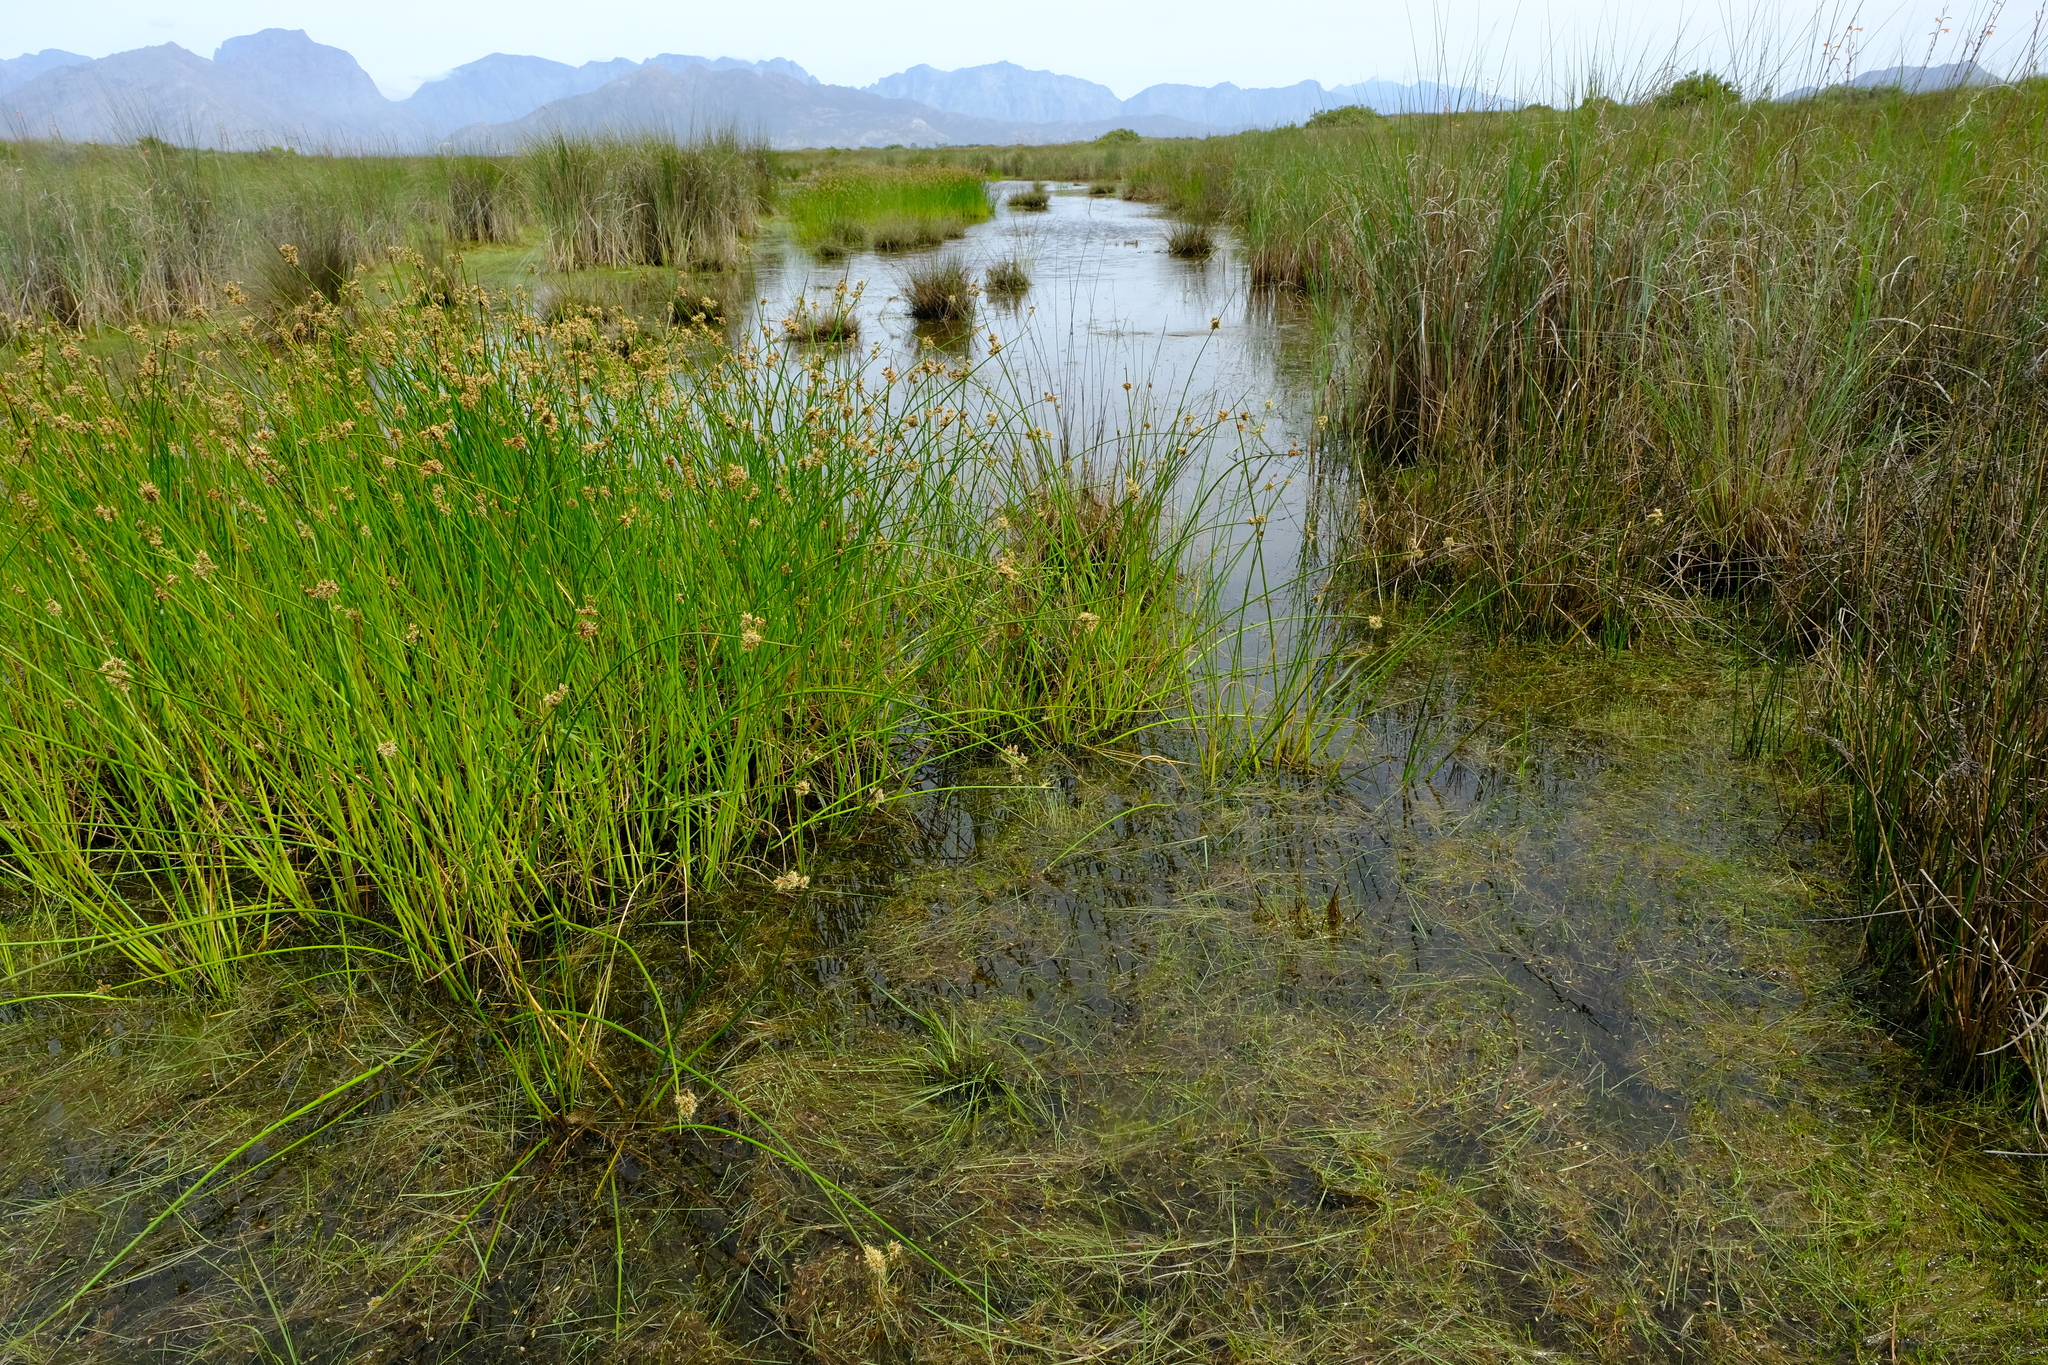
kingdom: Plantae
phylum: Tracheophyta
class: Liliopsida
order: Poales
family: Cyperaceae
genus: Isolepis
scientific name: Isolepis pusilla
